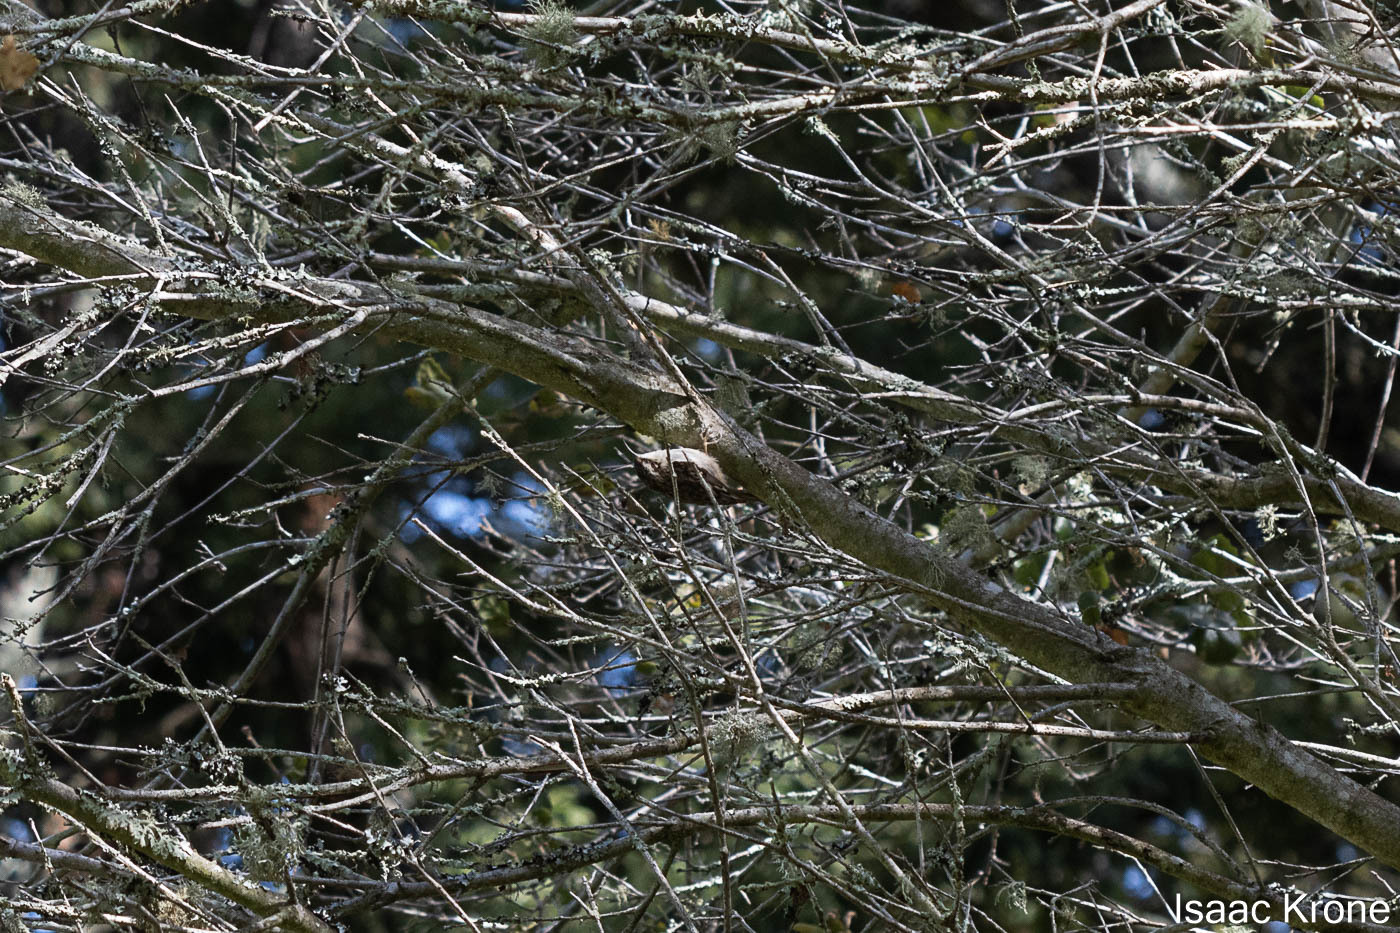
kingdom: Animalia
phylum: Chordata
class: Aves
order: Passeriformes
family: Certhiidae
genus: Certhia
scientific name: Certhia americana
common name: Brown creeper
